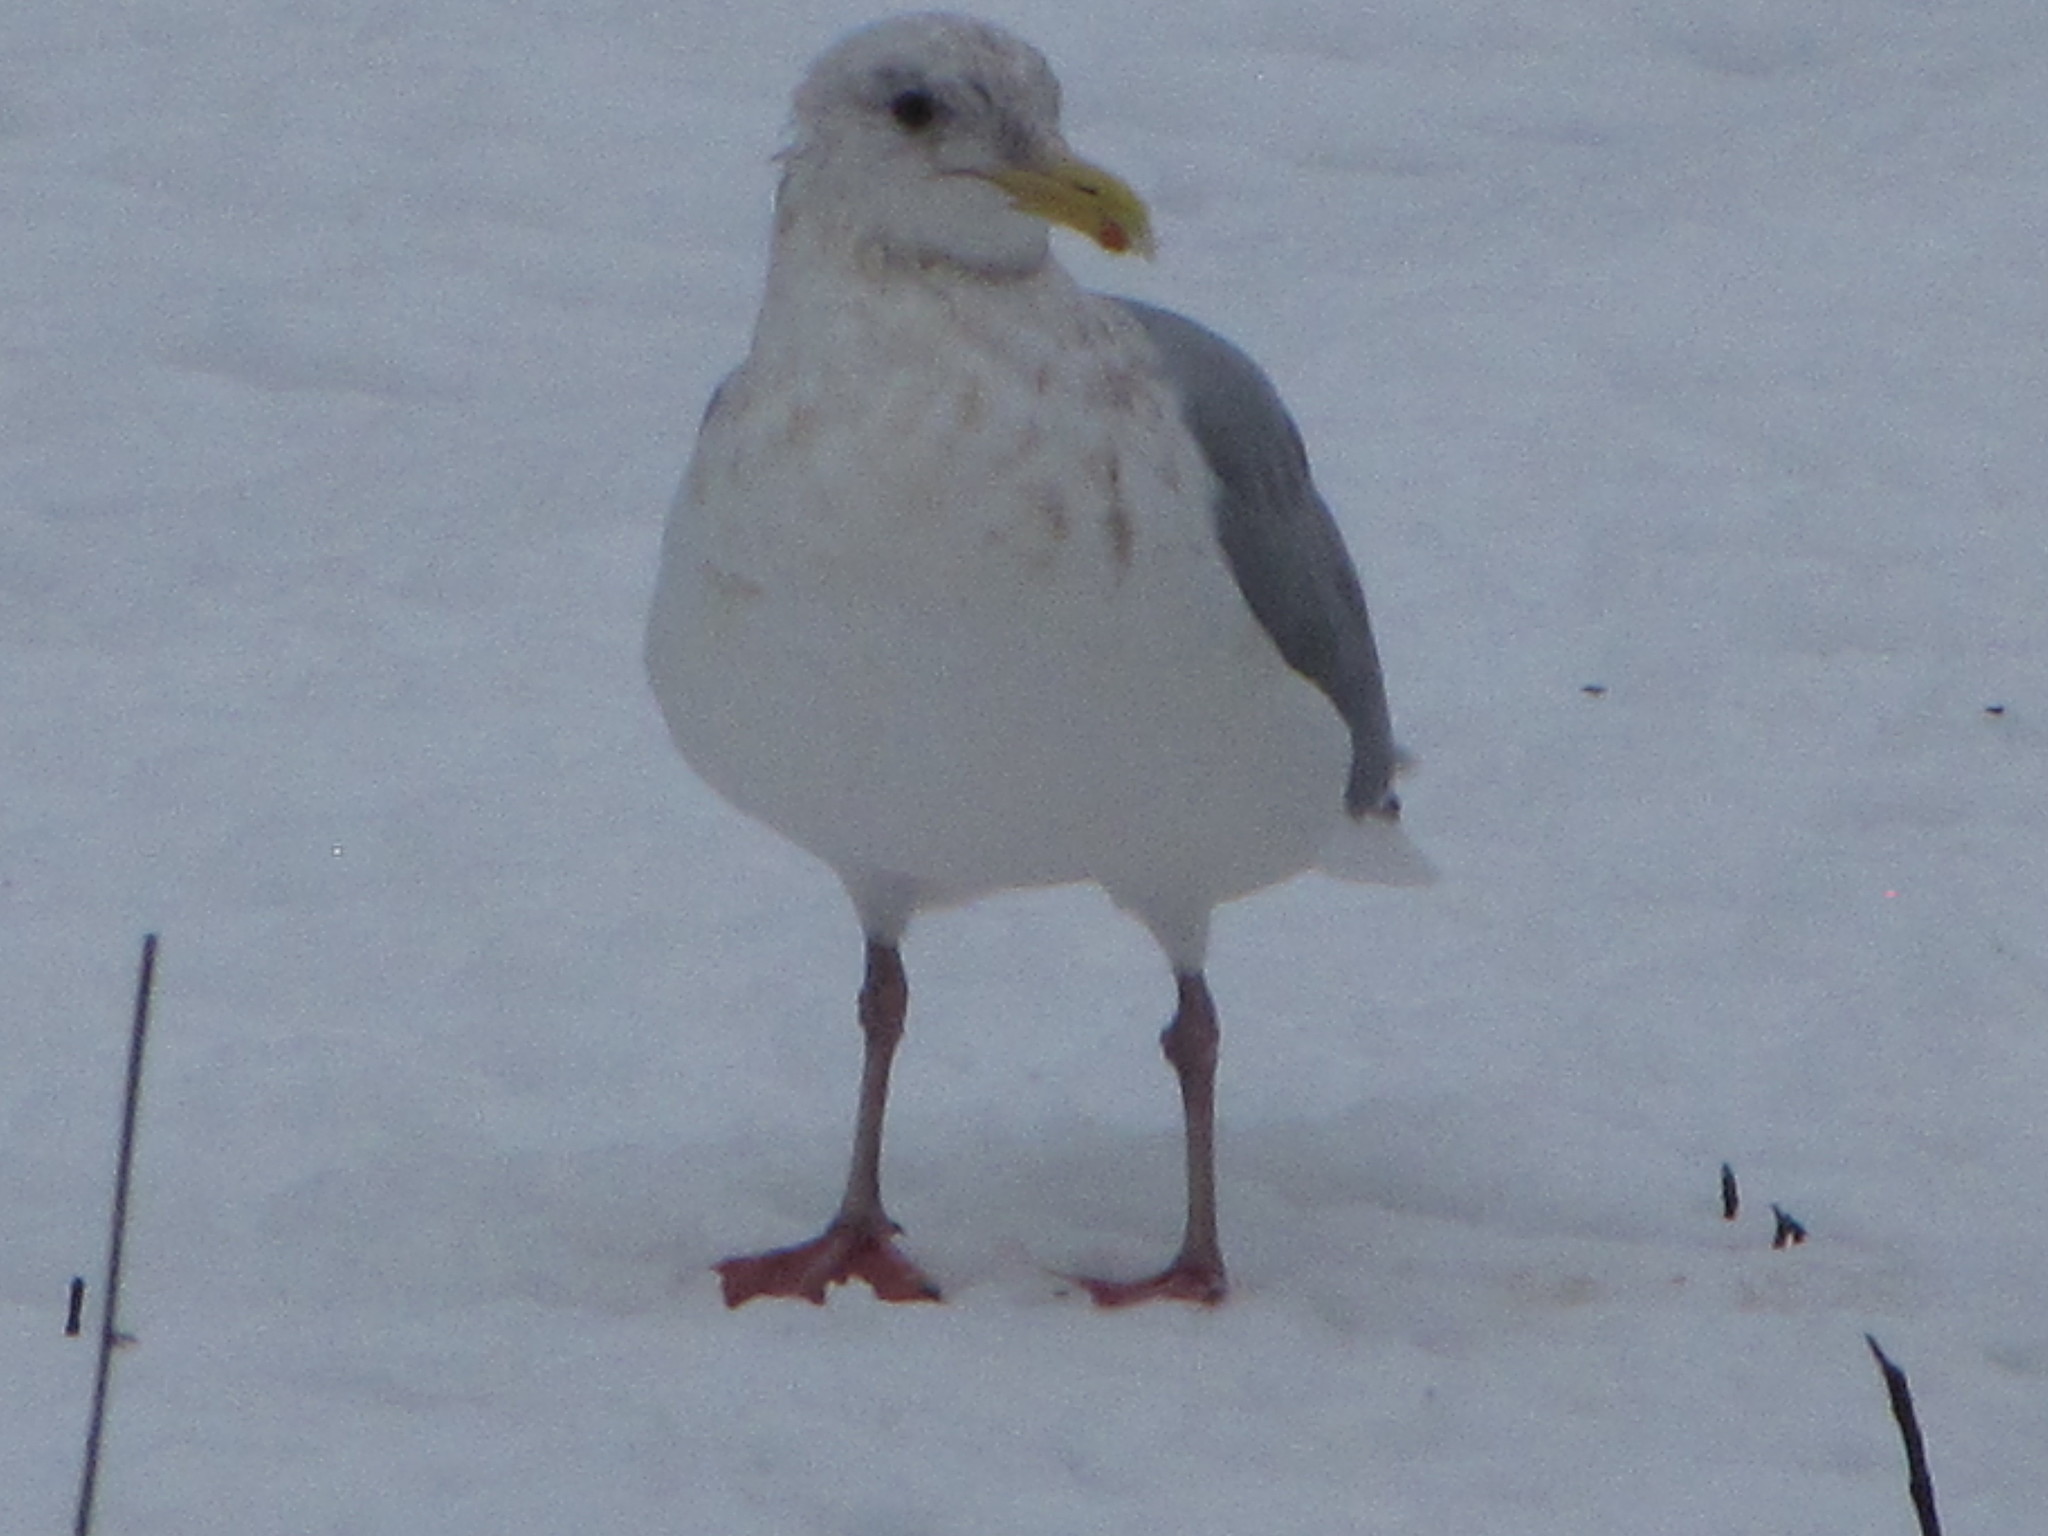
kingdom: Animalia
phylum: Chordata
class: Aves
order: Charadriiformes
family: Laridae
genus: Larus
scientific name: Larus argentatus
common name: Herring gull
